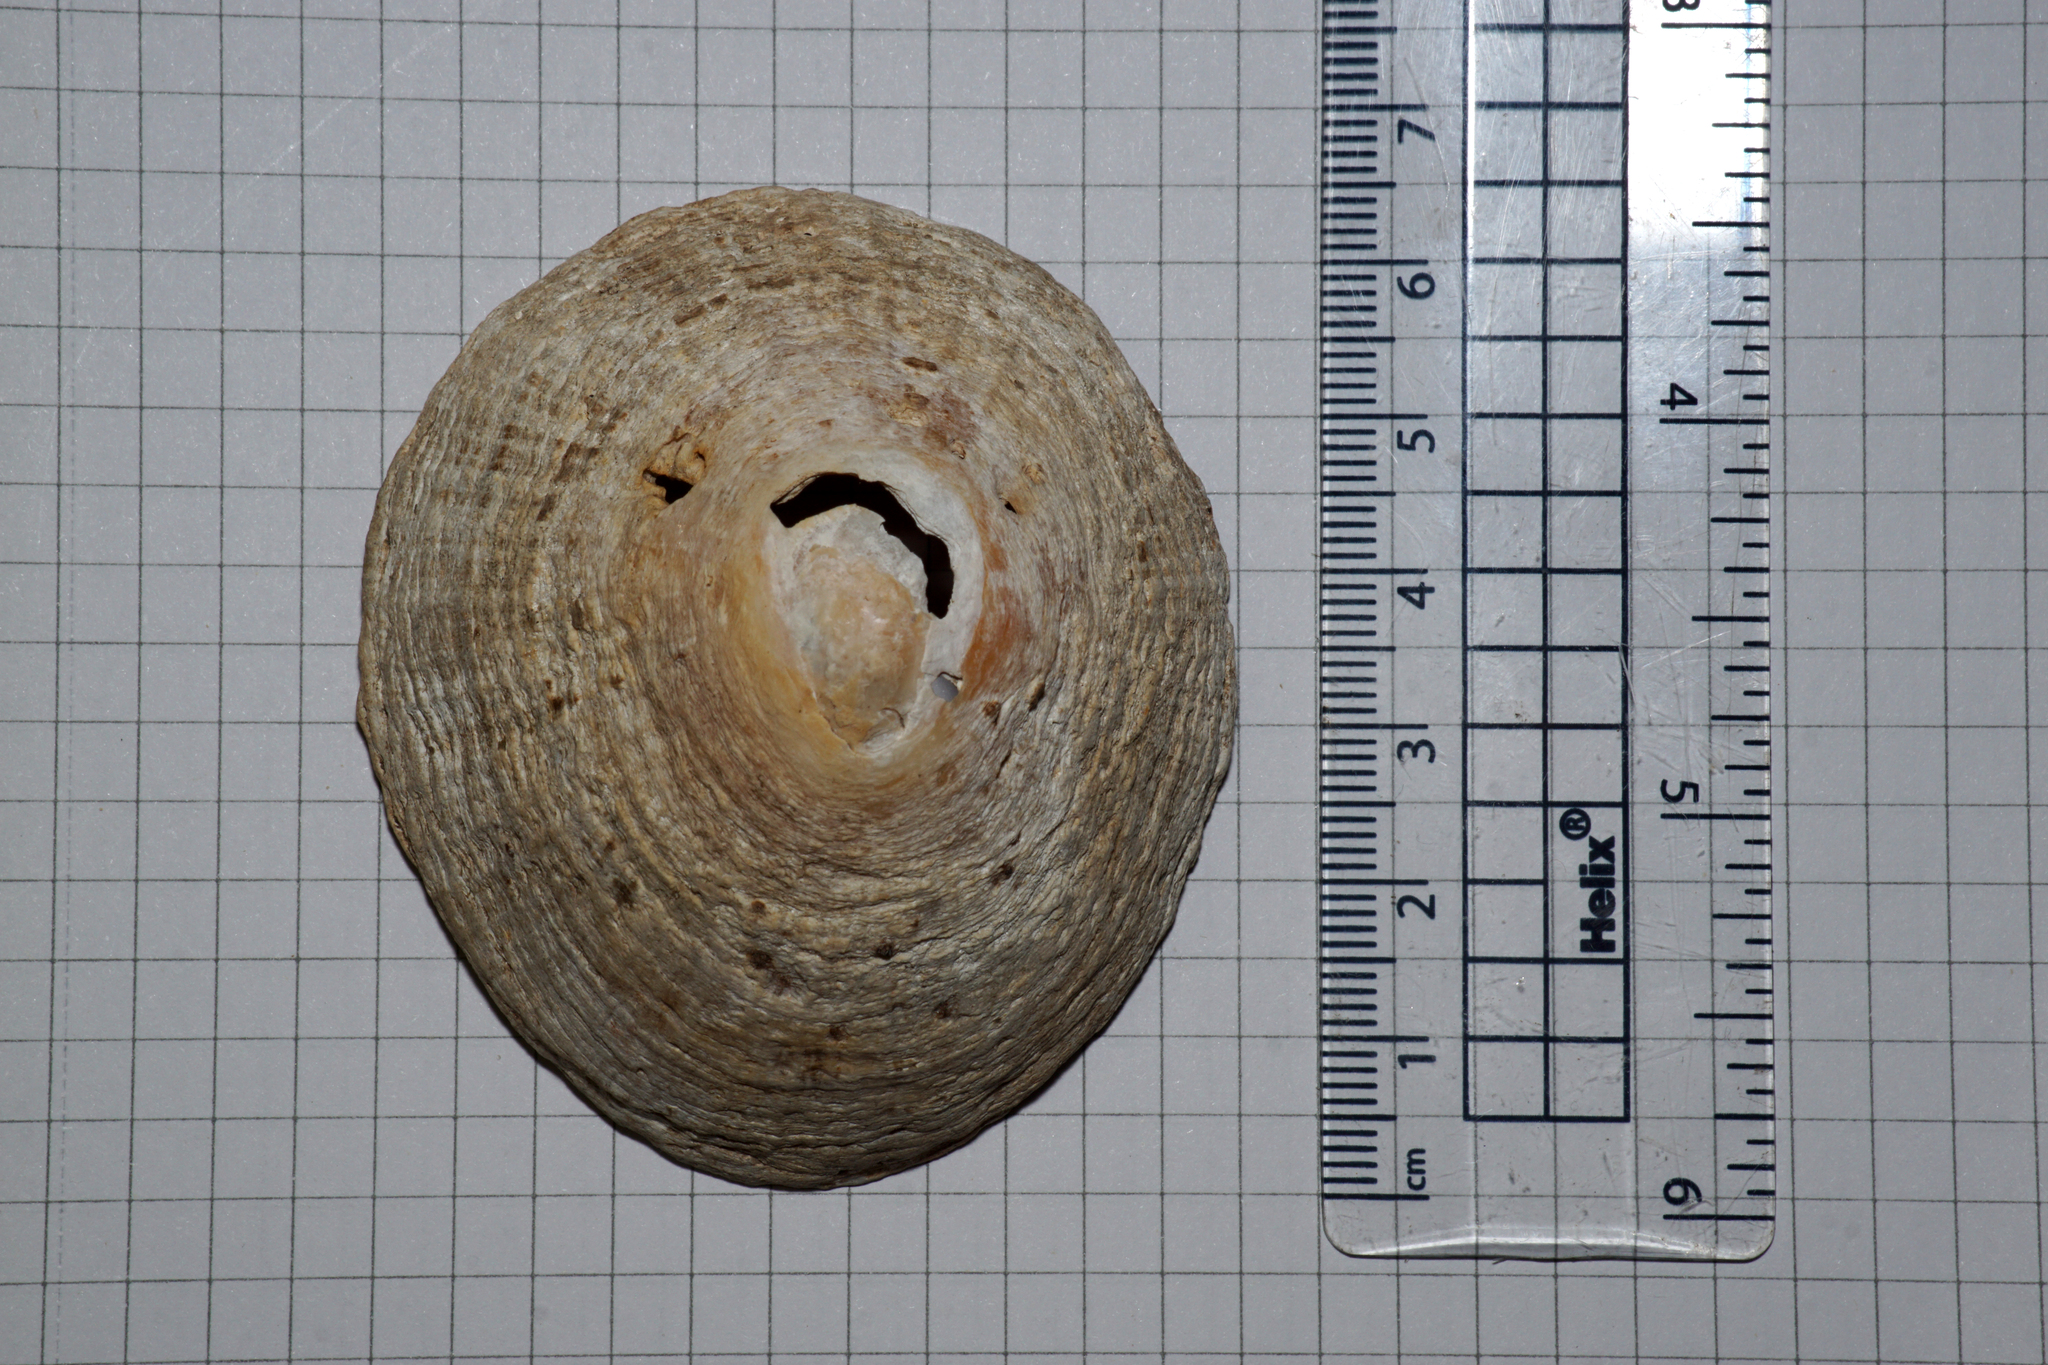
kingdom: Animalia
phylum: Mollusca
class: Gastropoda
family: Patellidae
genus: Patella
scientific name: Patella vulgata
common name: Common limpet
